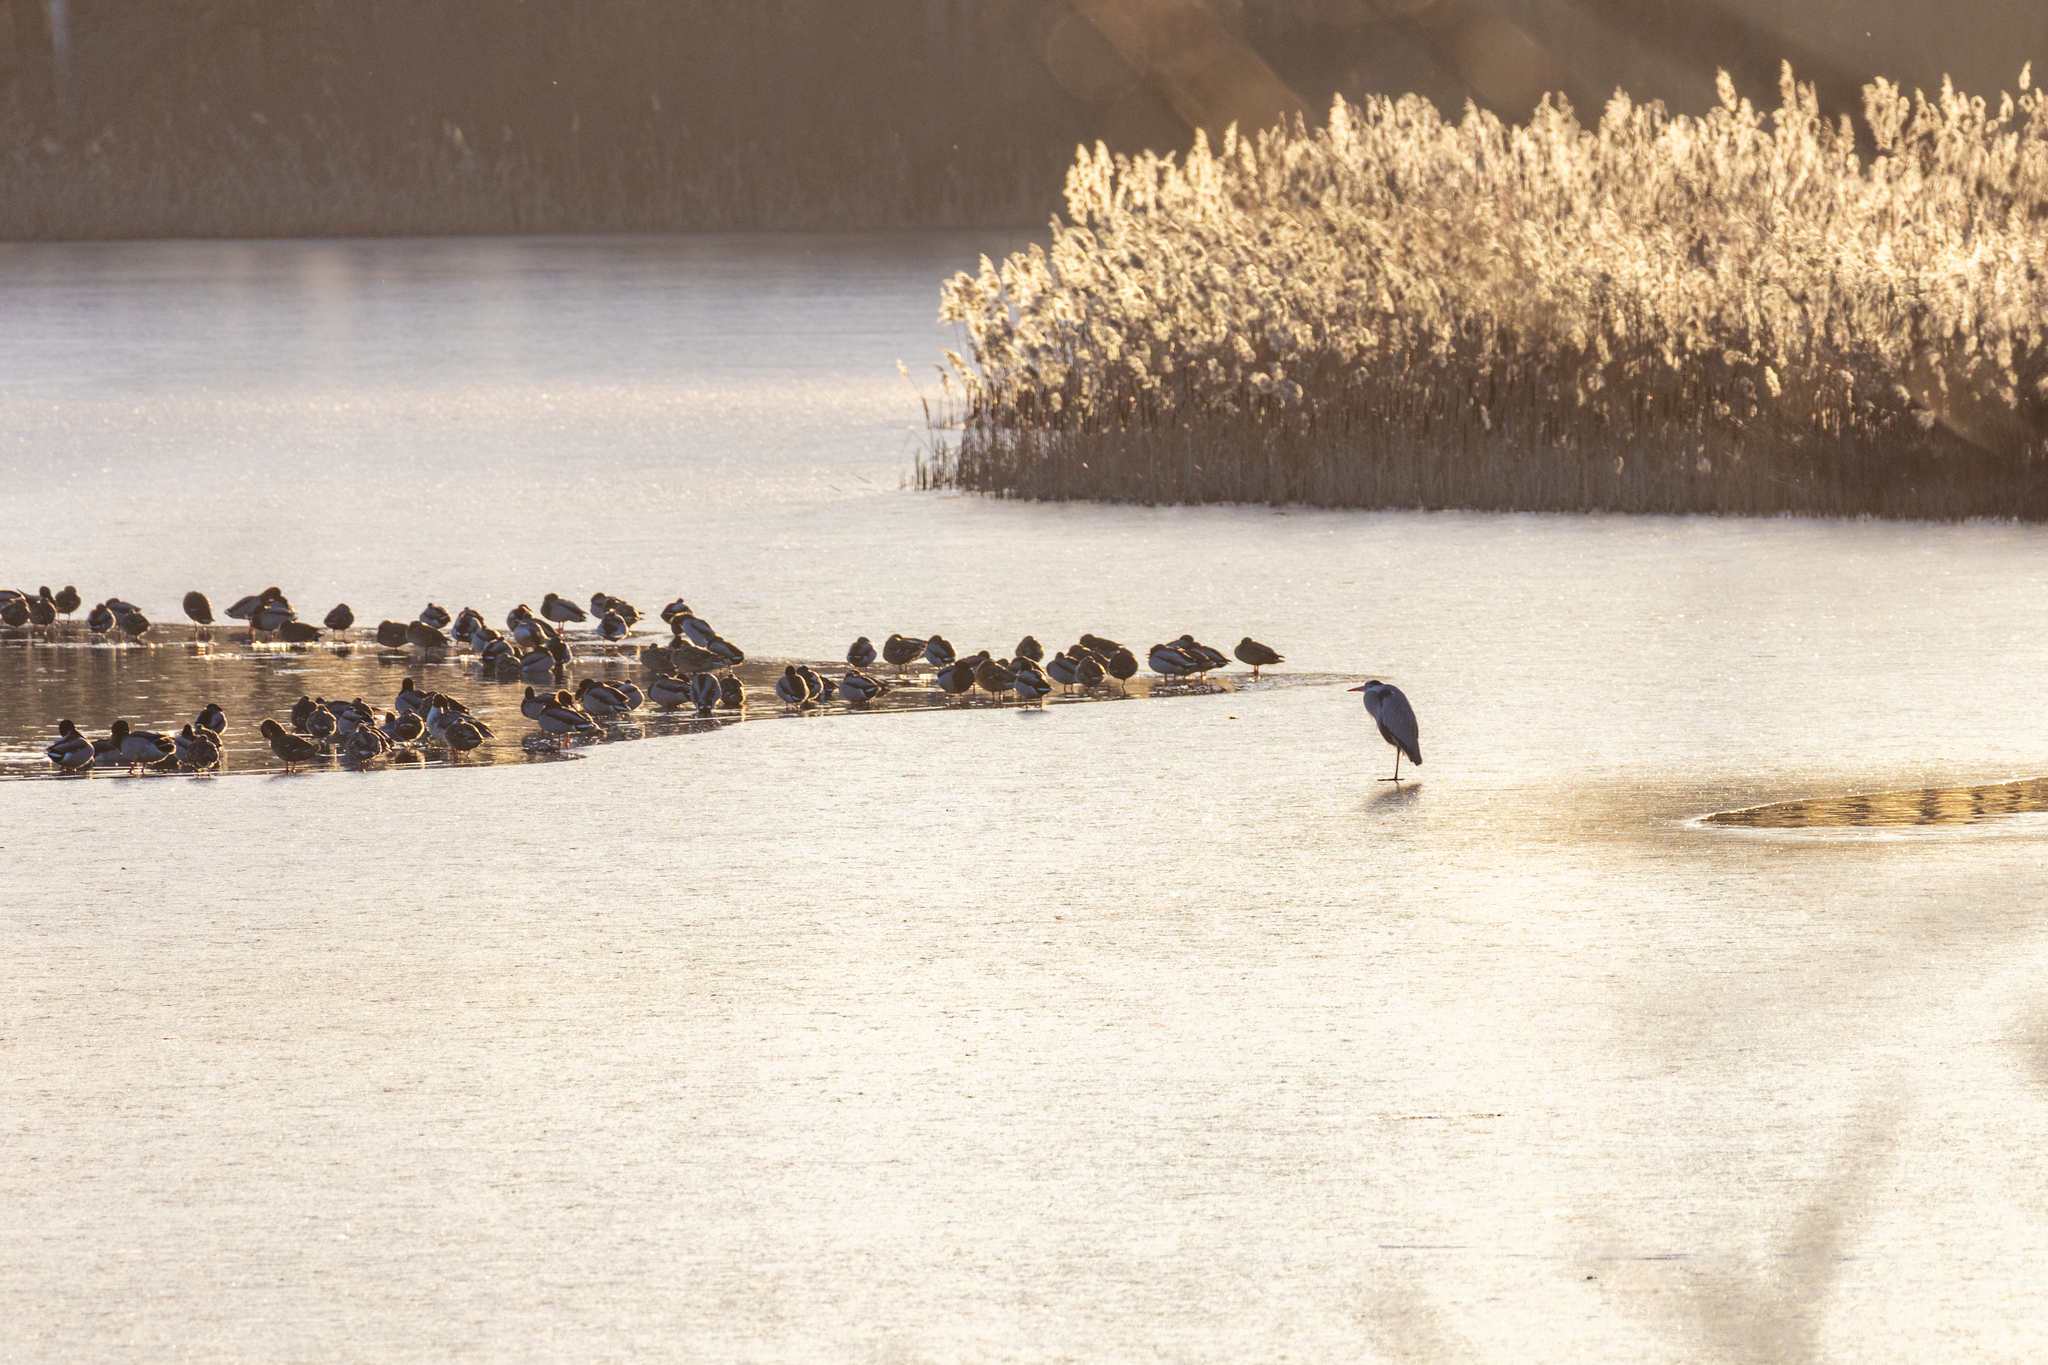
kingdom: Animalia
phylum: Chordata
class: Aves
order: Pelecaniformes
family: Ardeidae
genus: Ardea
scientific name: Ardea cinerea
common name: Grey heron
